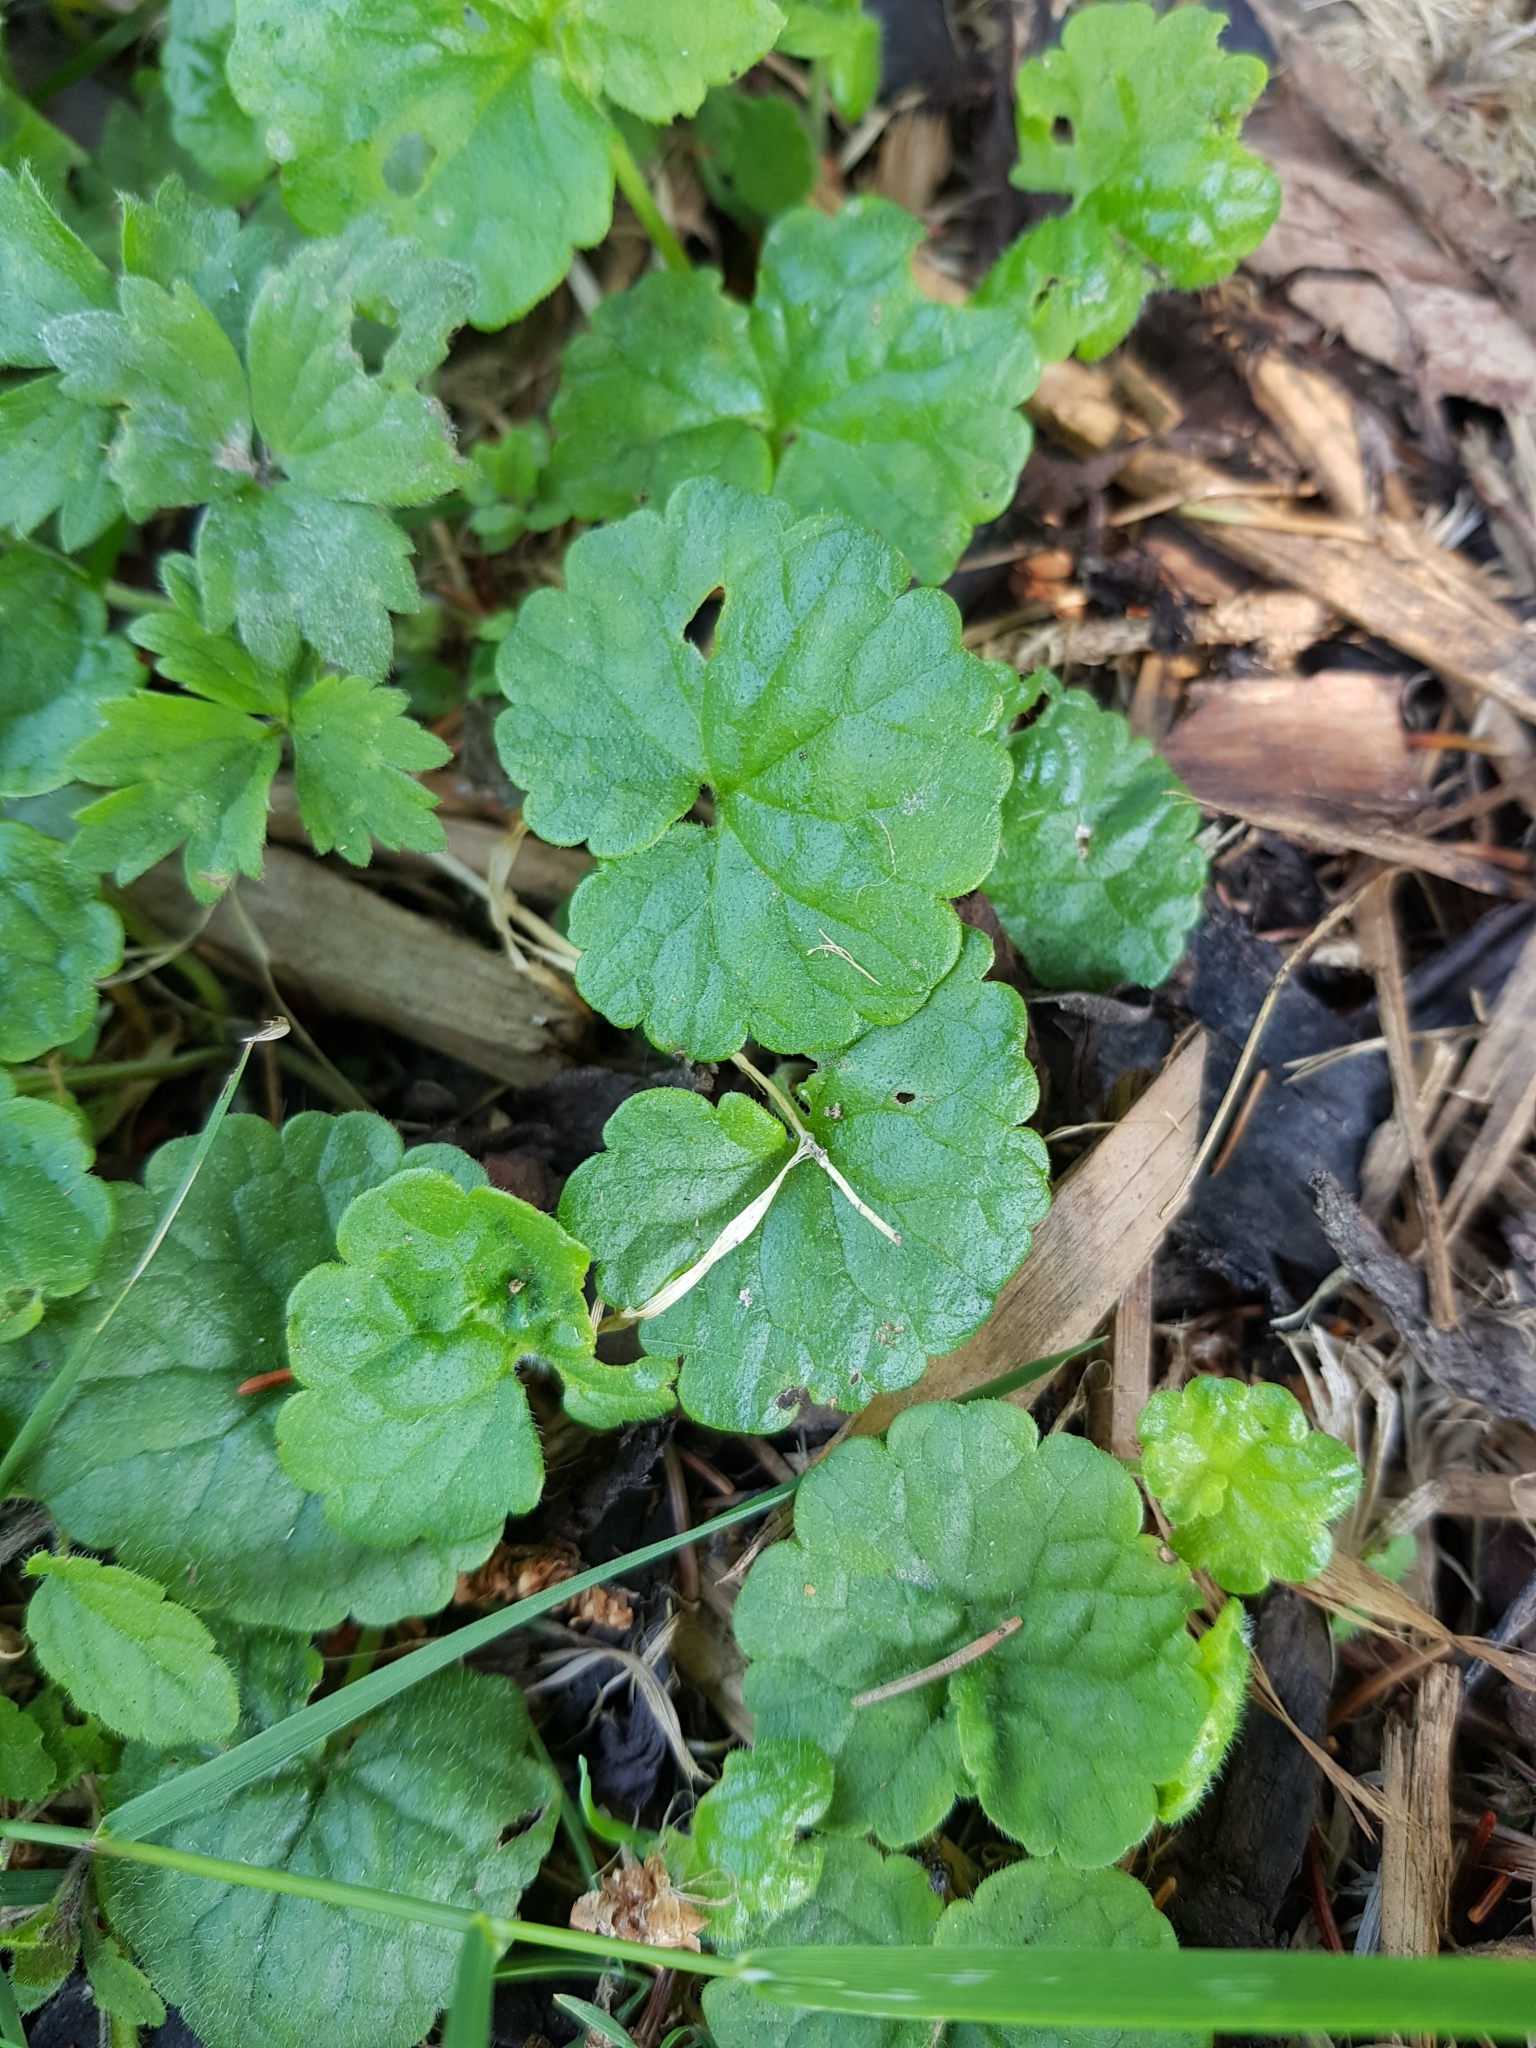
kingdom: Plantae
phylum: Tracheophyta
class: Magnoliopsida
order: Lamiales
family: Lamiaceae
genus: Glechoma
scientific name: Glechoma hederacea
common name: Ground ivy
